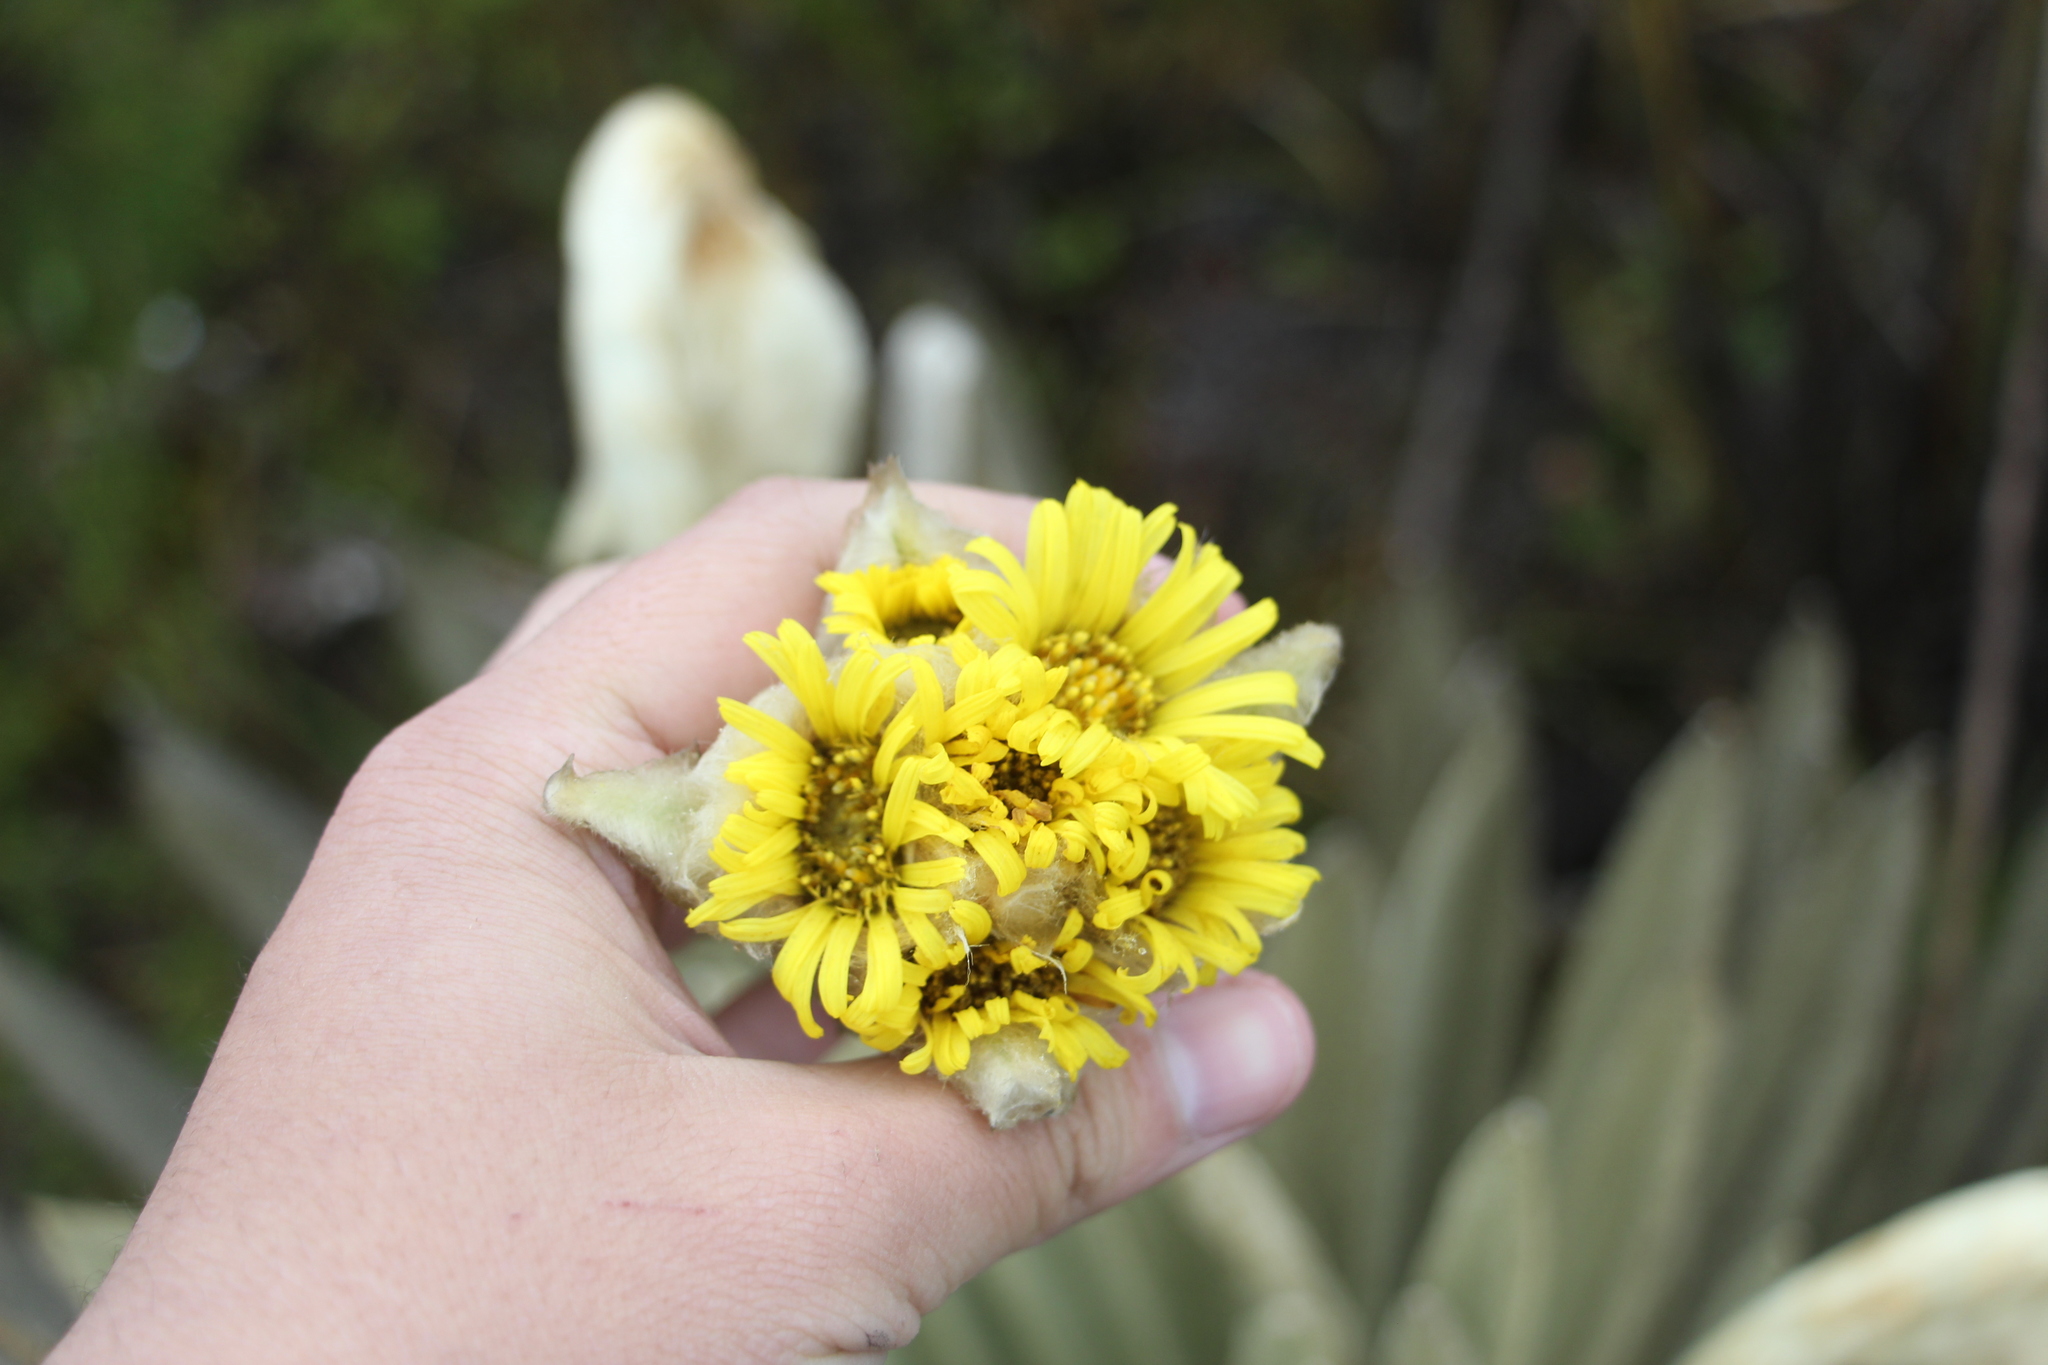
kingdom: Plantae
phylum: Tracheophyta
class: Magnoliopsida
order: Asterales
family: Asteraceae
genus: Espeletia
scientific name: Espeletia congestiflora
